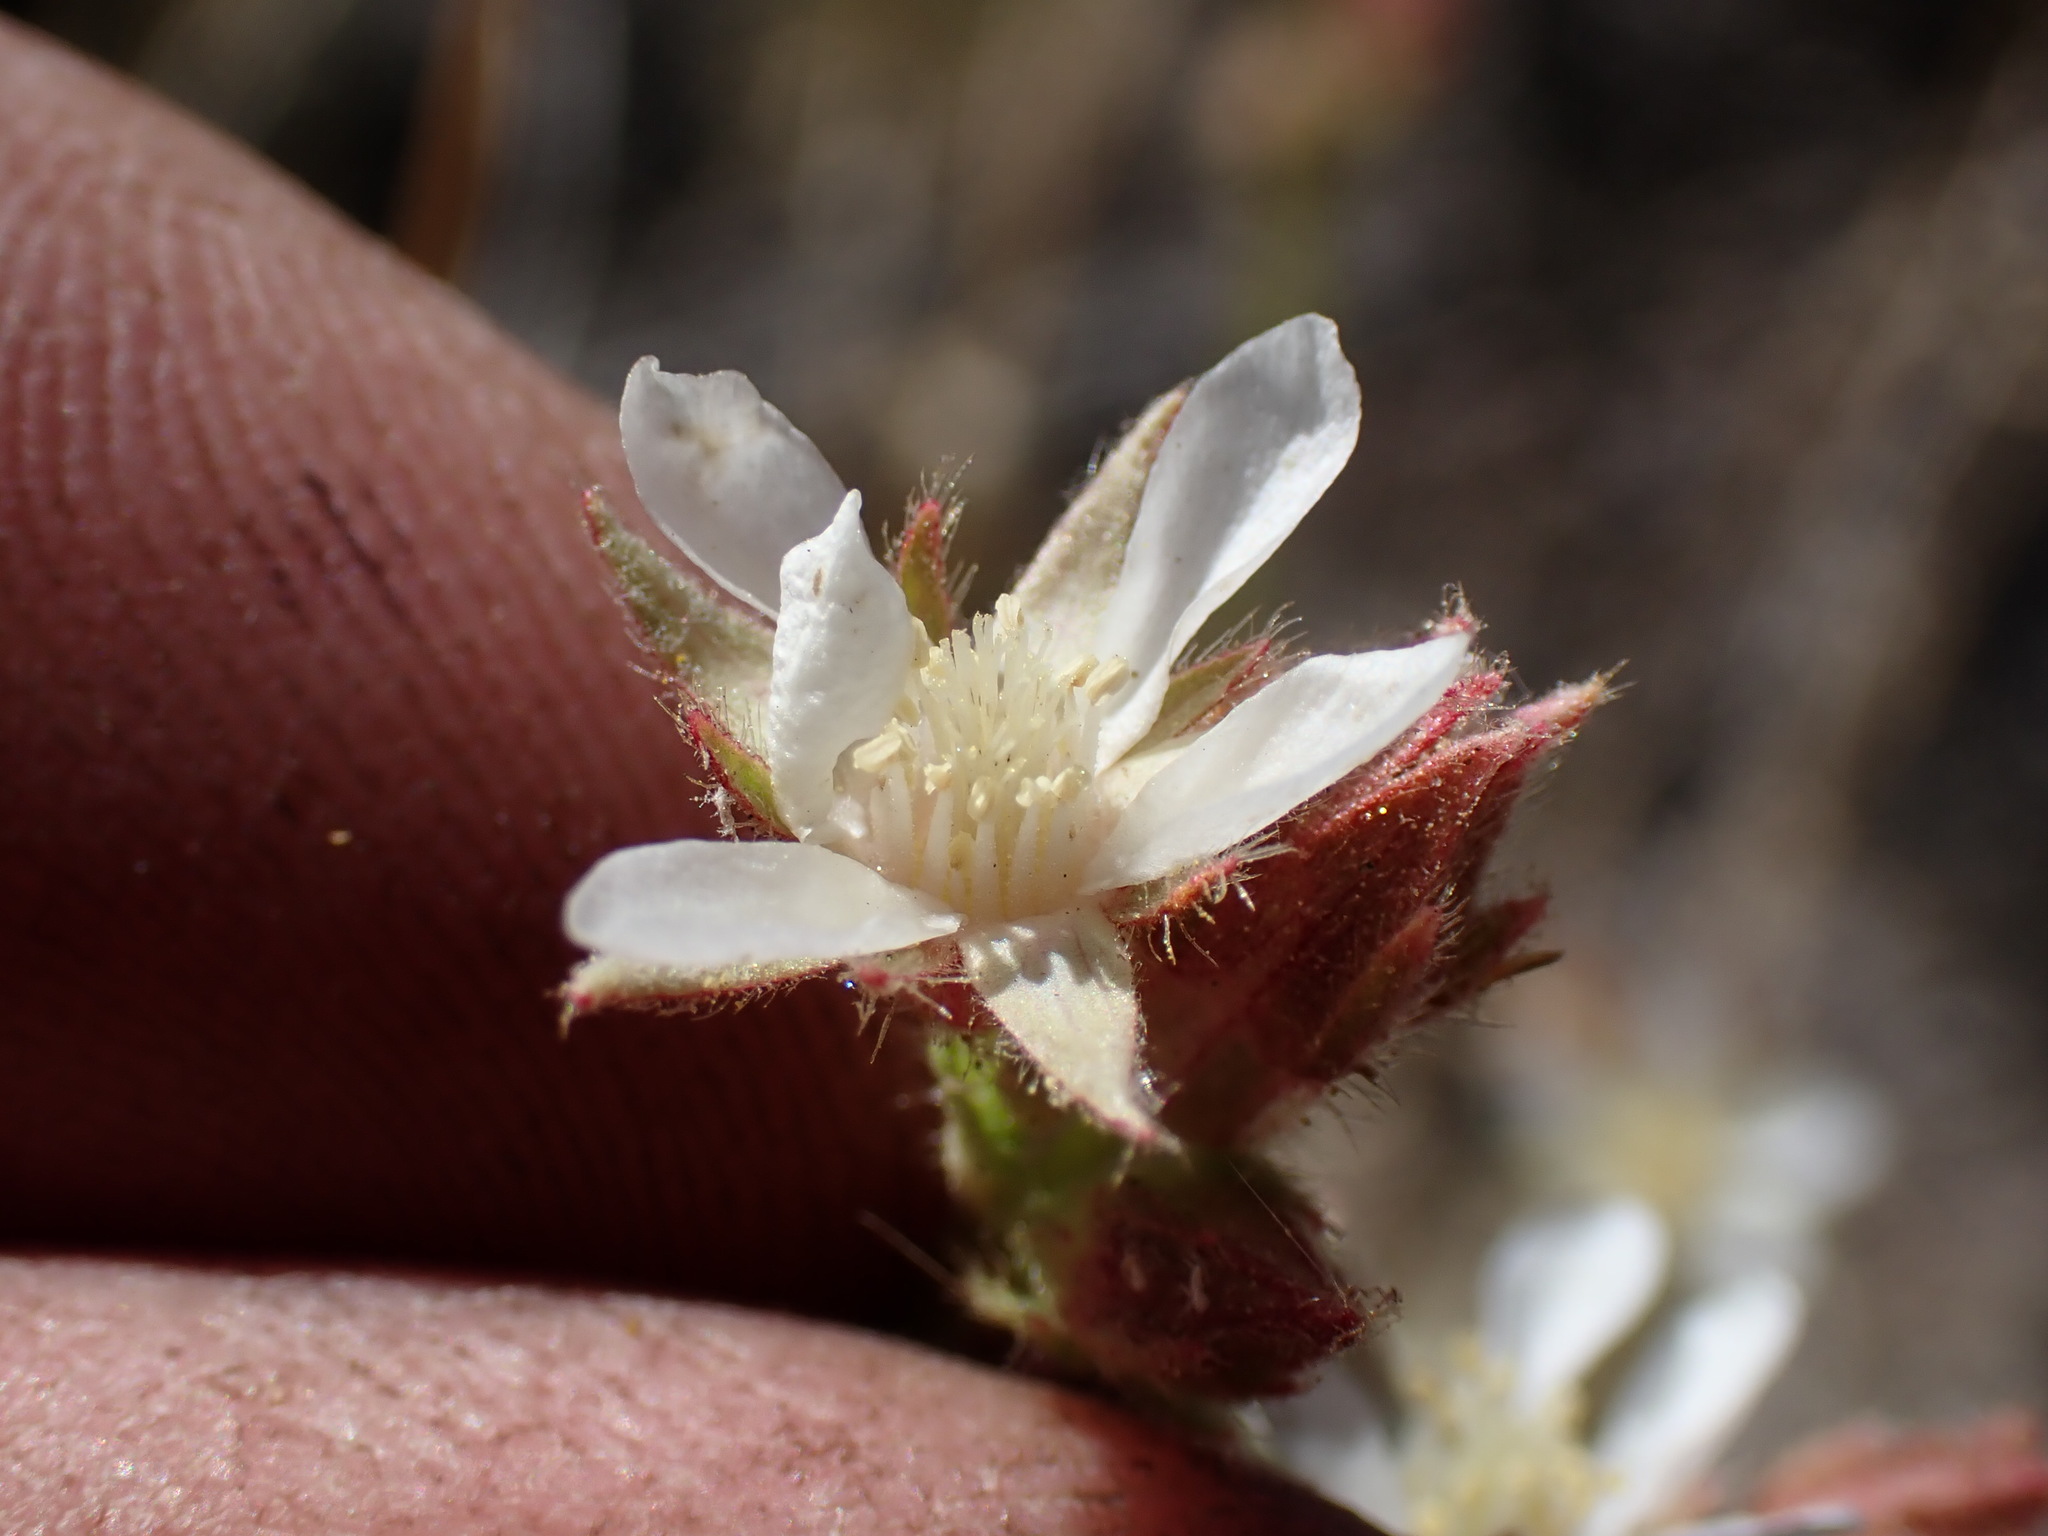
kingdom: Plantae
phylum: Tracheophyta
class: Magnoliopsida
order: Rosales
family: Rosaceae
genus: Potentilla
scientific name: Potentilla congdonis
